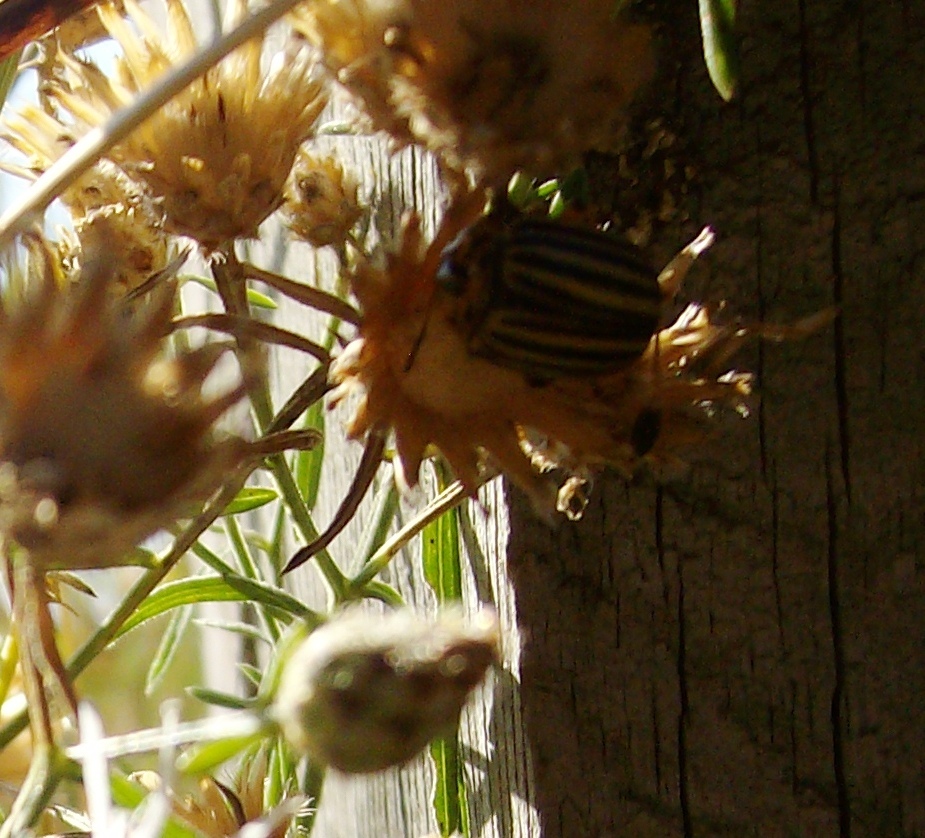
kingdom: Animalia
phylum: Arthropoda
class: Insecta
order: Coleoptera
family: Chrysomelidae
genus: Leptinotarsa
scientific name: Leptinotarsa decemlineata
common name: Colorado potato beetle
